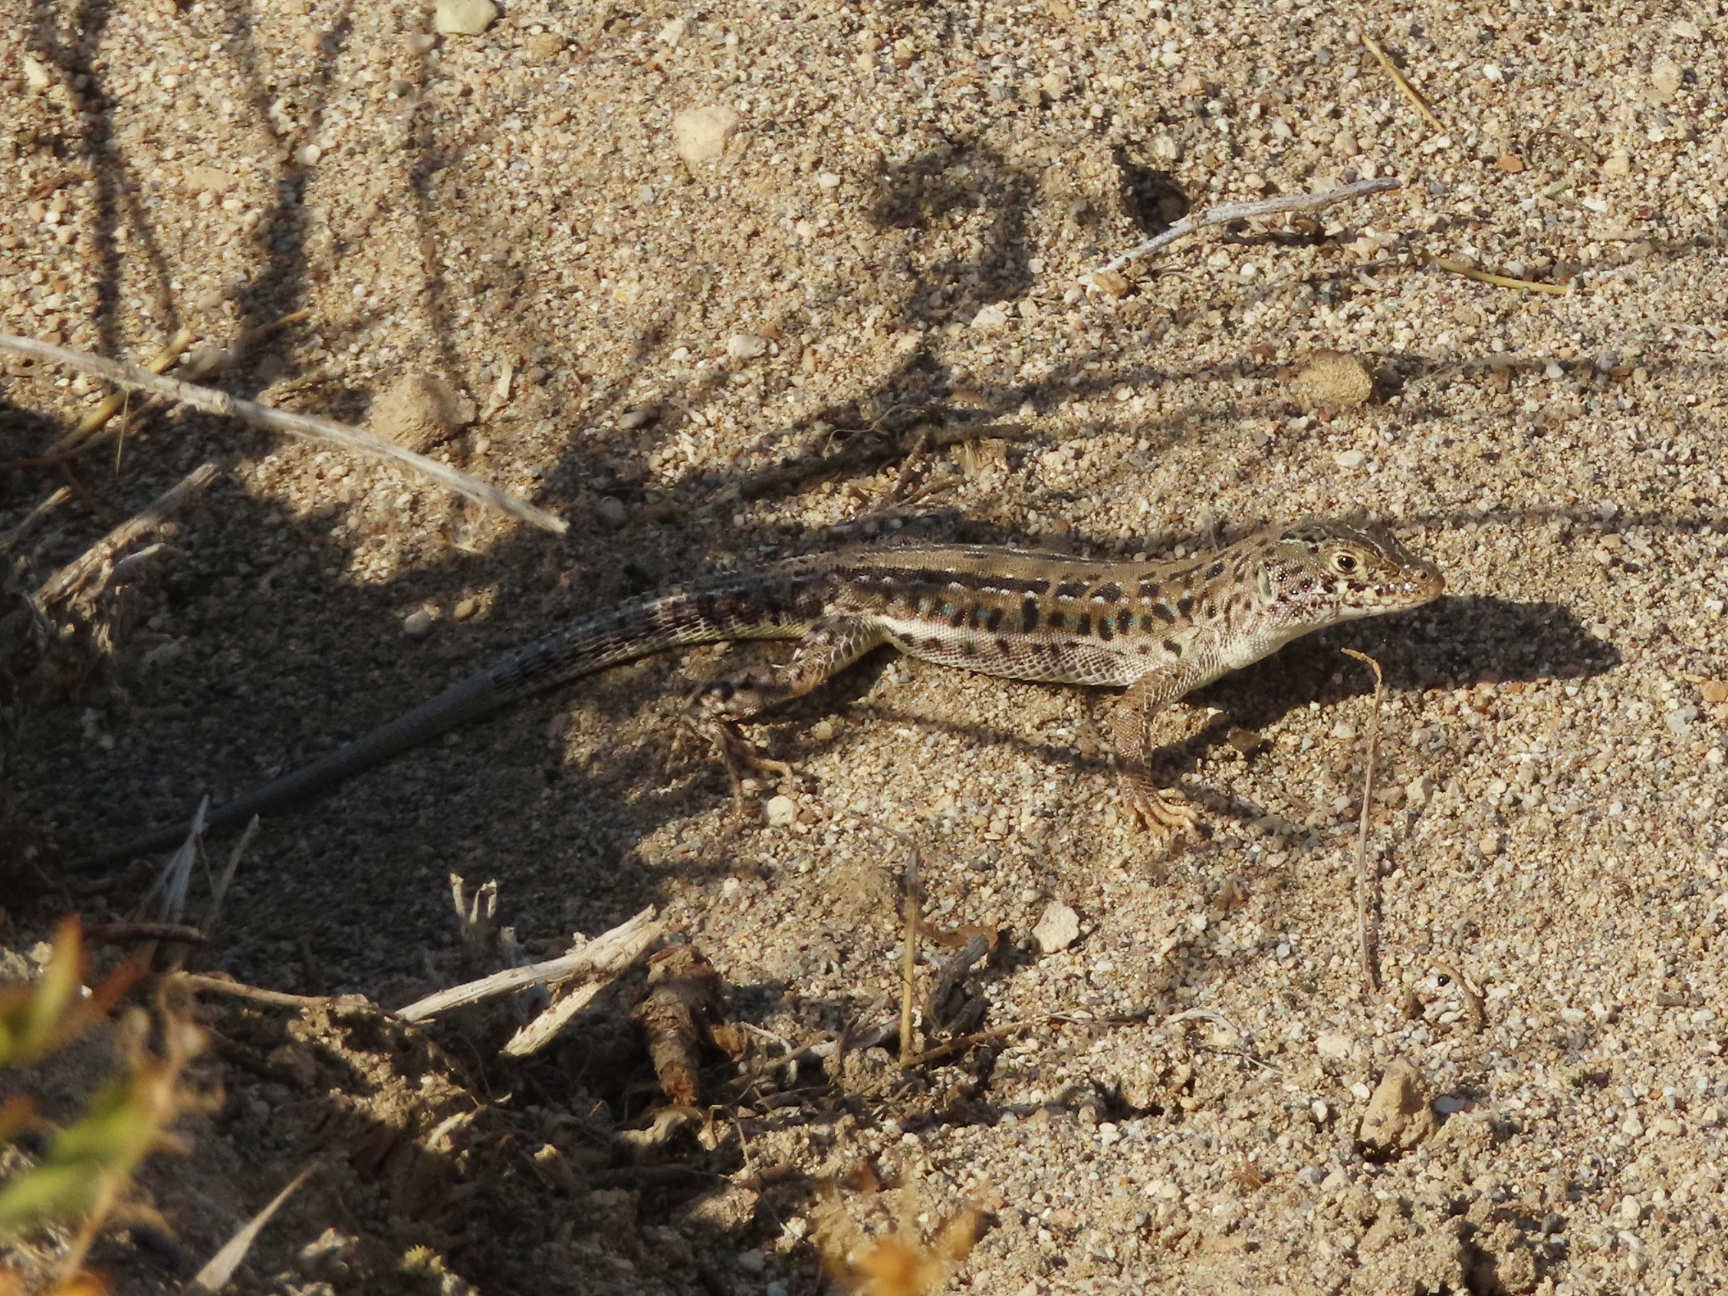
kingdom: Animalia
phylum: Chordata
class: Squamata
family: Lacertidae
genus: Eremias
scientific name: Eremias strauchi
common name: Strauch's racerunner
